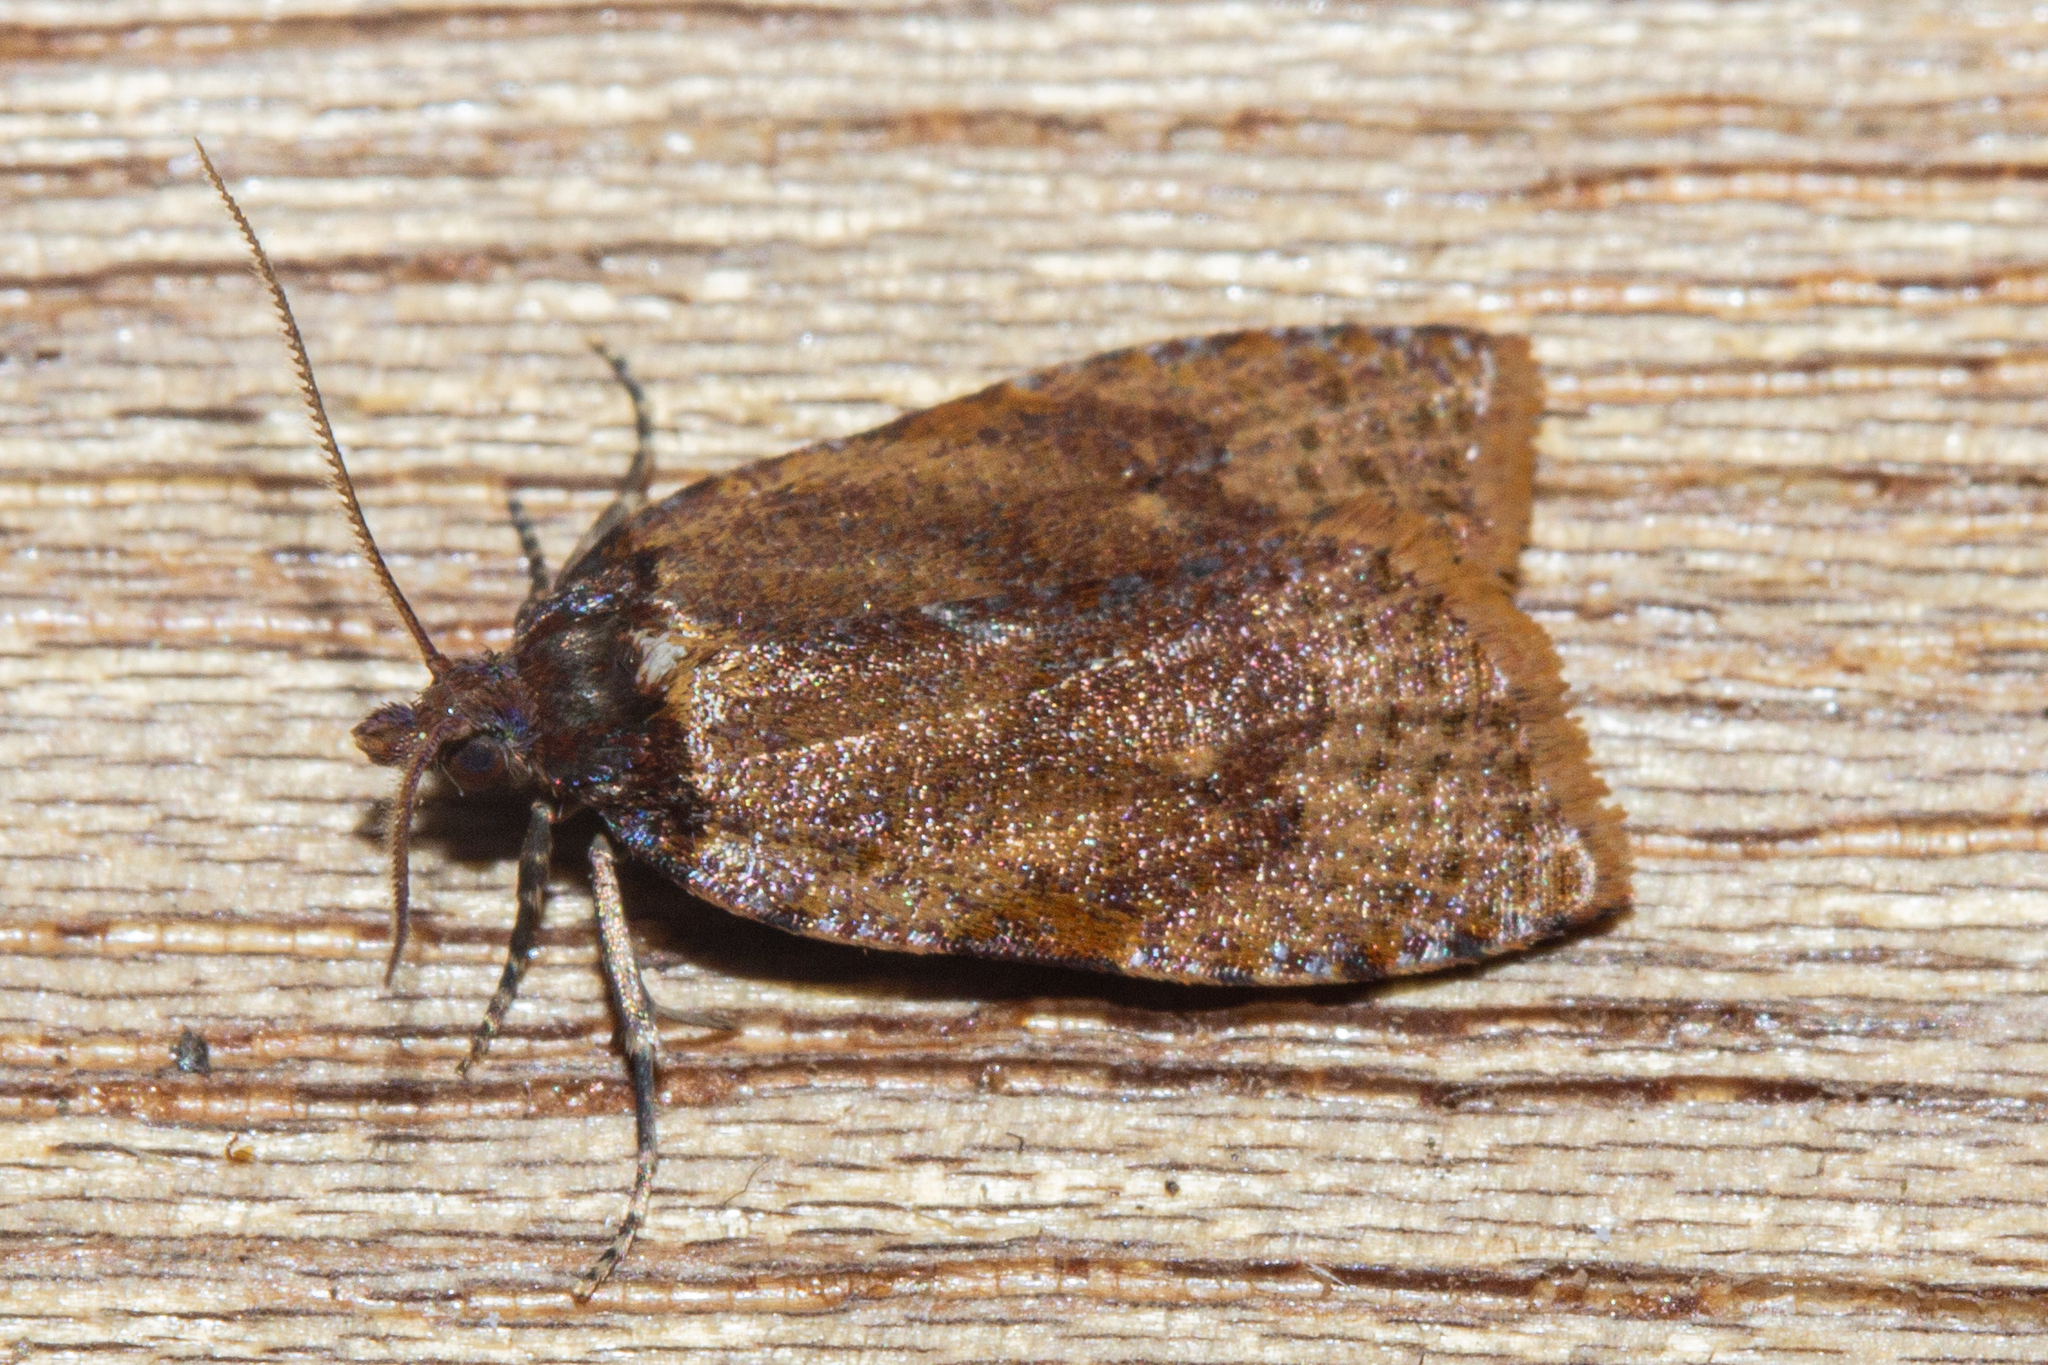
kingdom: Animalia
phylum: Arthropoda
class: Insecta
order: Lepidoptera
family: Tortricidae
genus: Cnephasia
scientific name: Cnephasia microbathra
